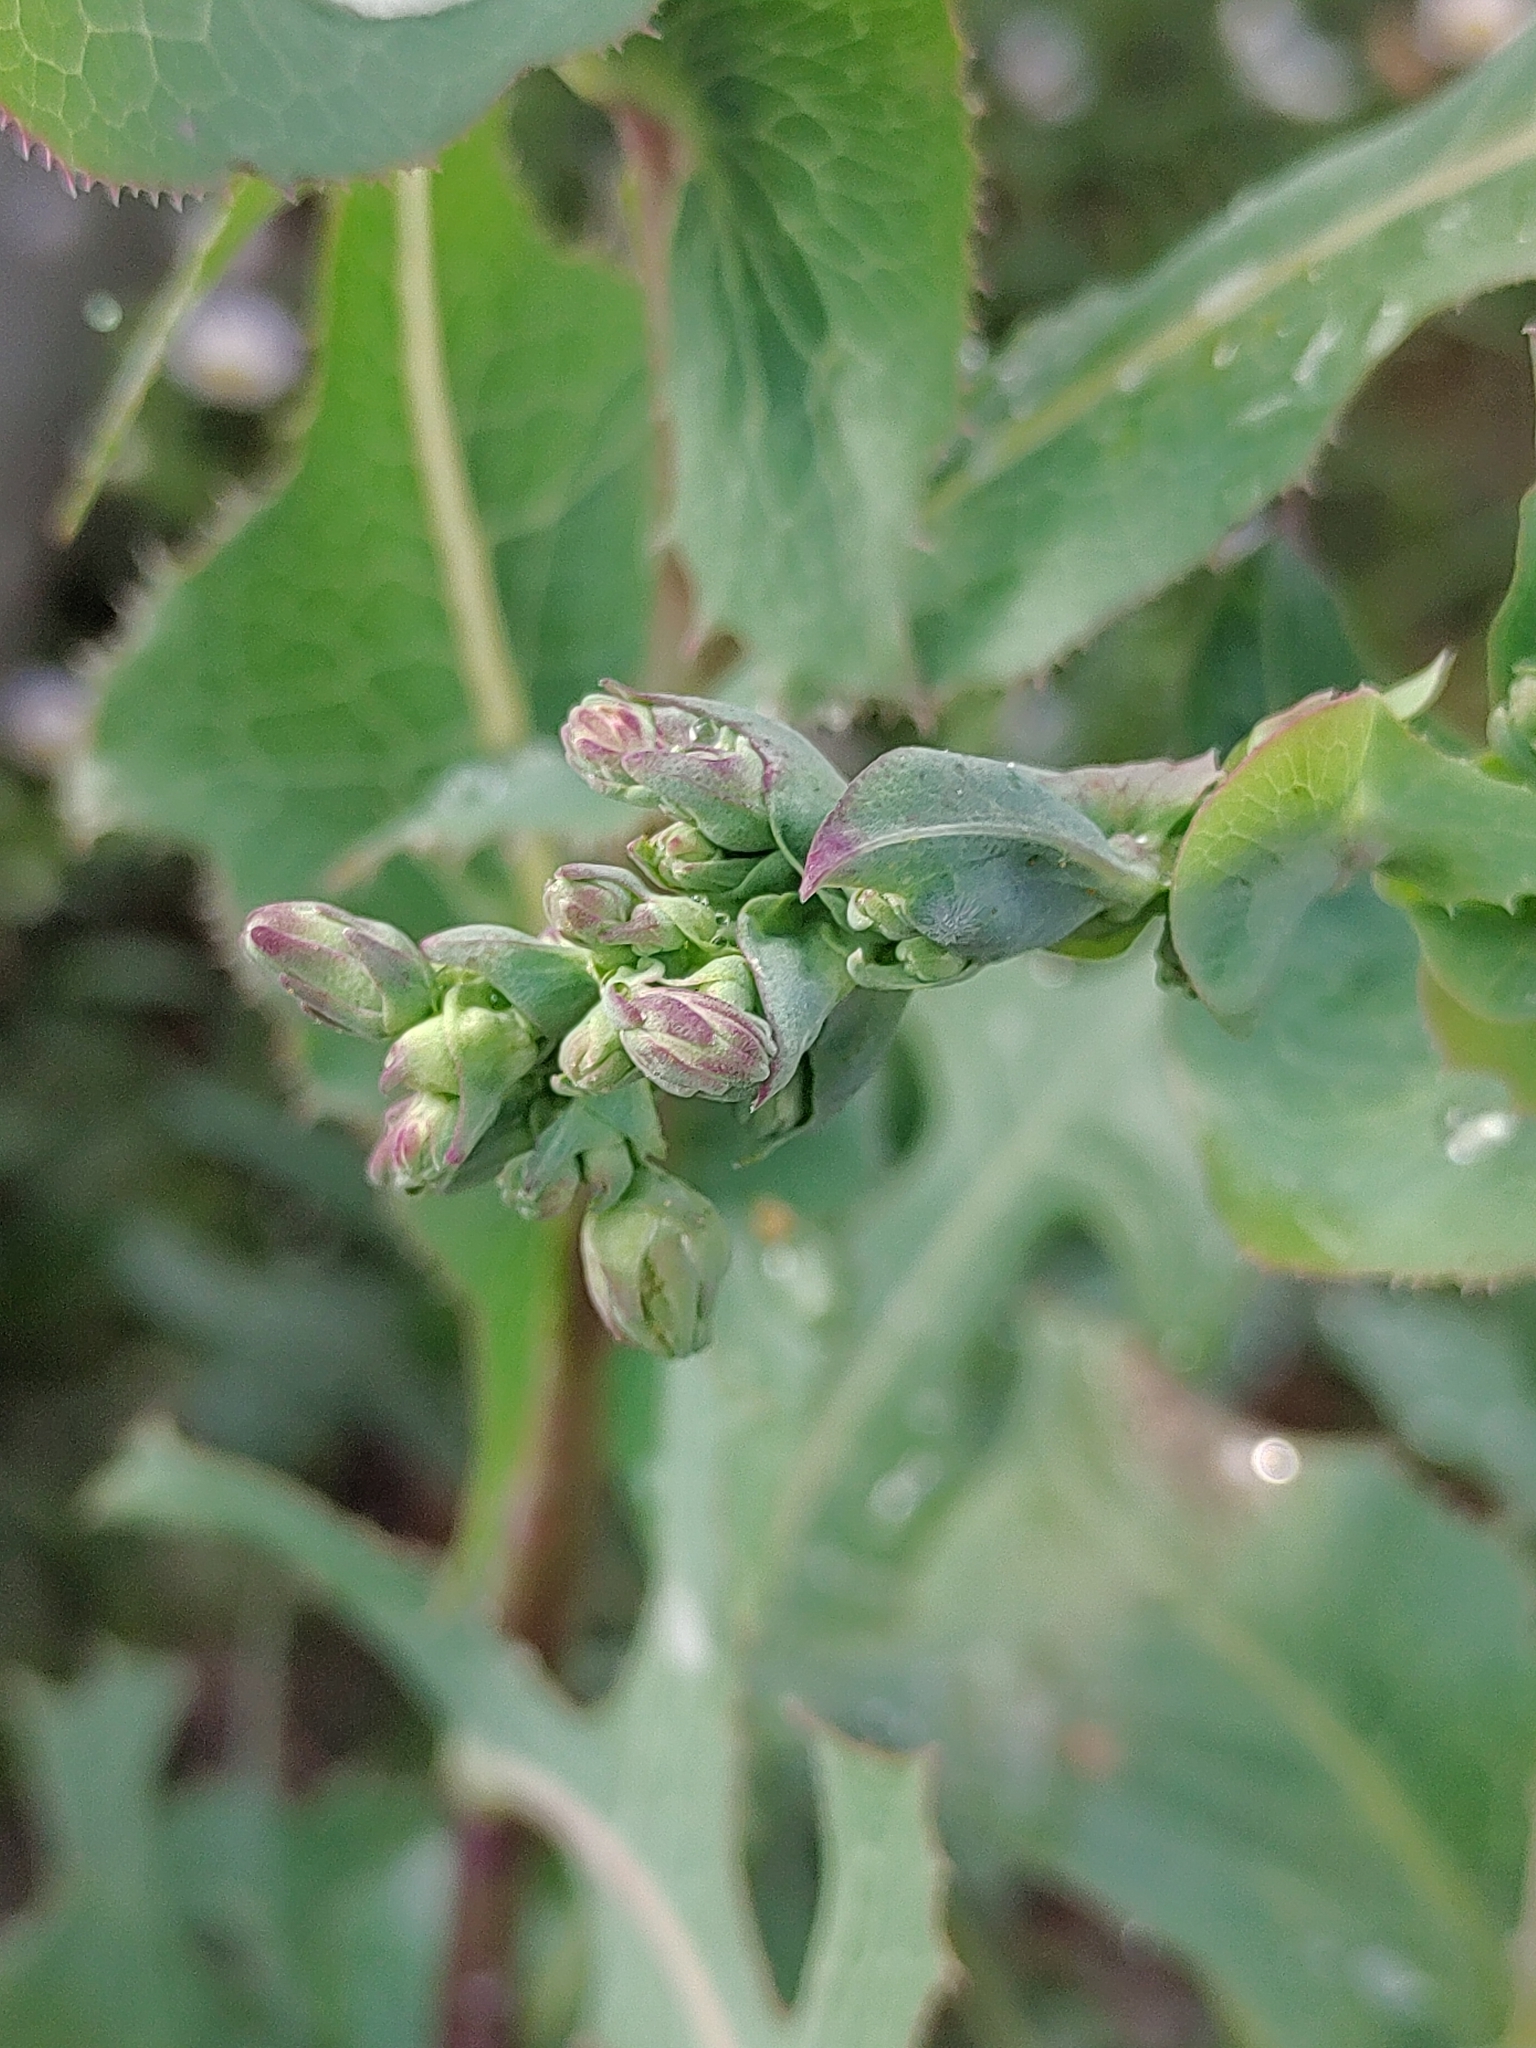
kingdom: Plantae
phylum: Tracheophyta
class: Magnoliopsida
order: Asterales
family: Asteraceae
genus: Lactuca
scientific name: Lactuca serriola
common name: Prickly lettuce
